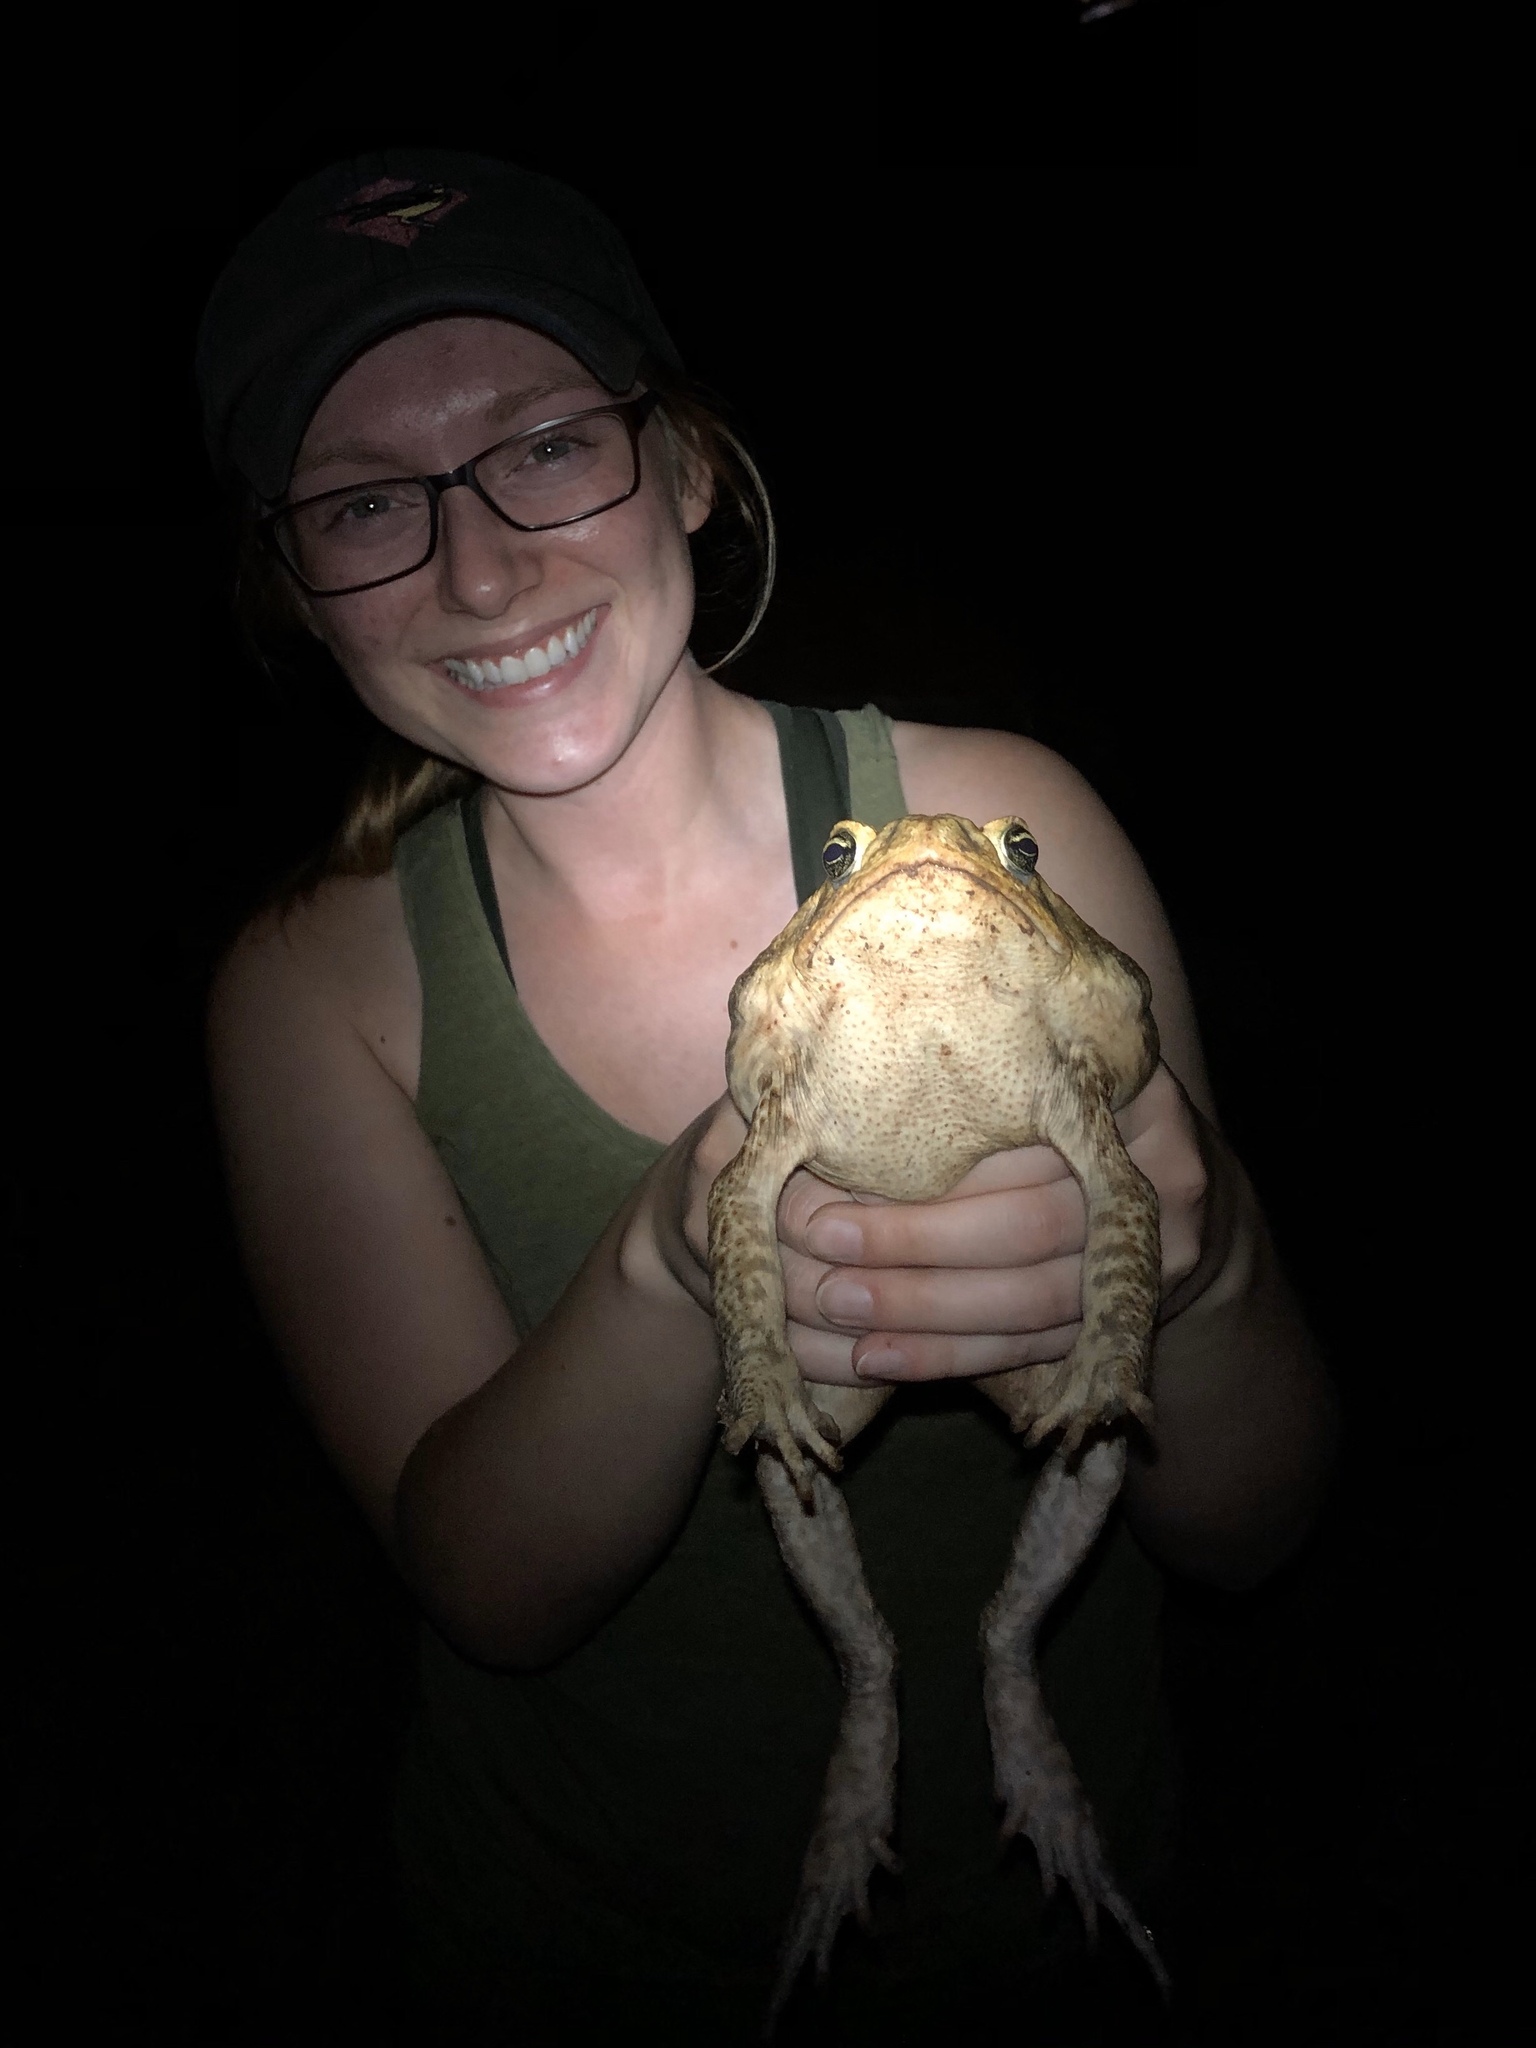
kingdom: Animalia
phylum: Chordata
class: Amphibia
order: Anura
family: Bufonidae
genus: Rhinella
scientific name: Rhinella horribilis
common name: Mesoamerican cane toad
